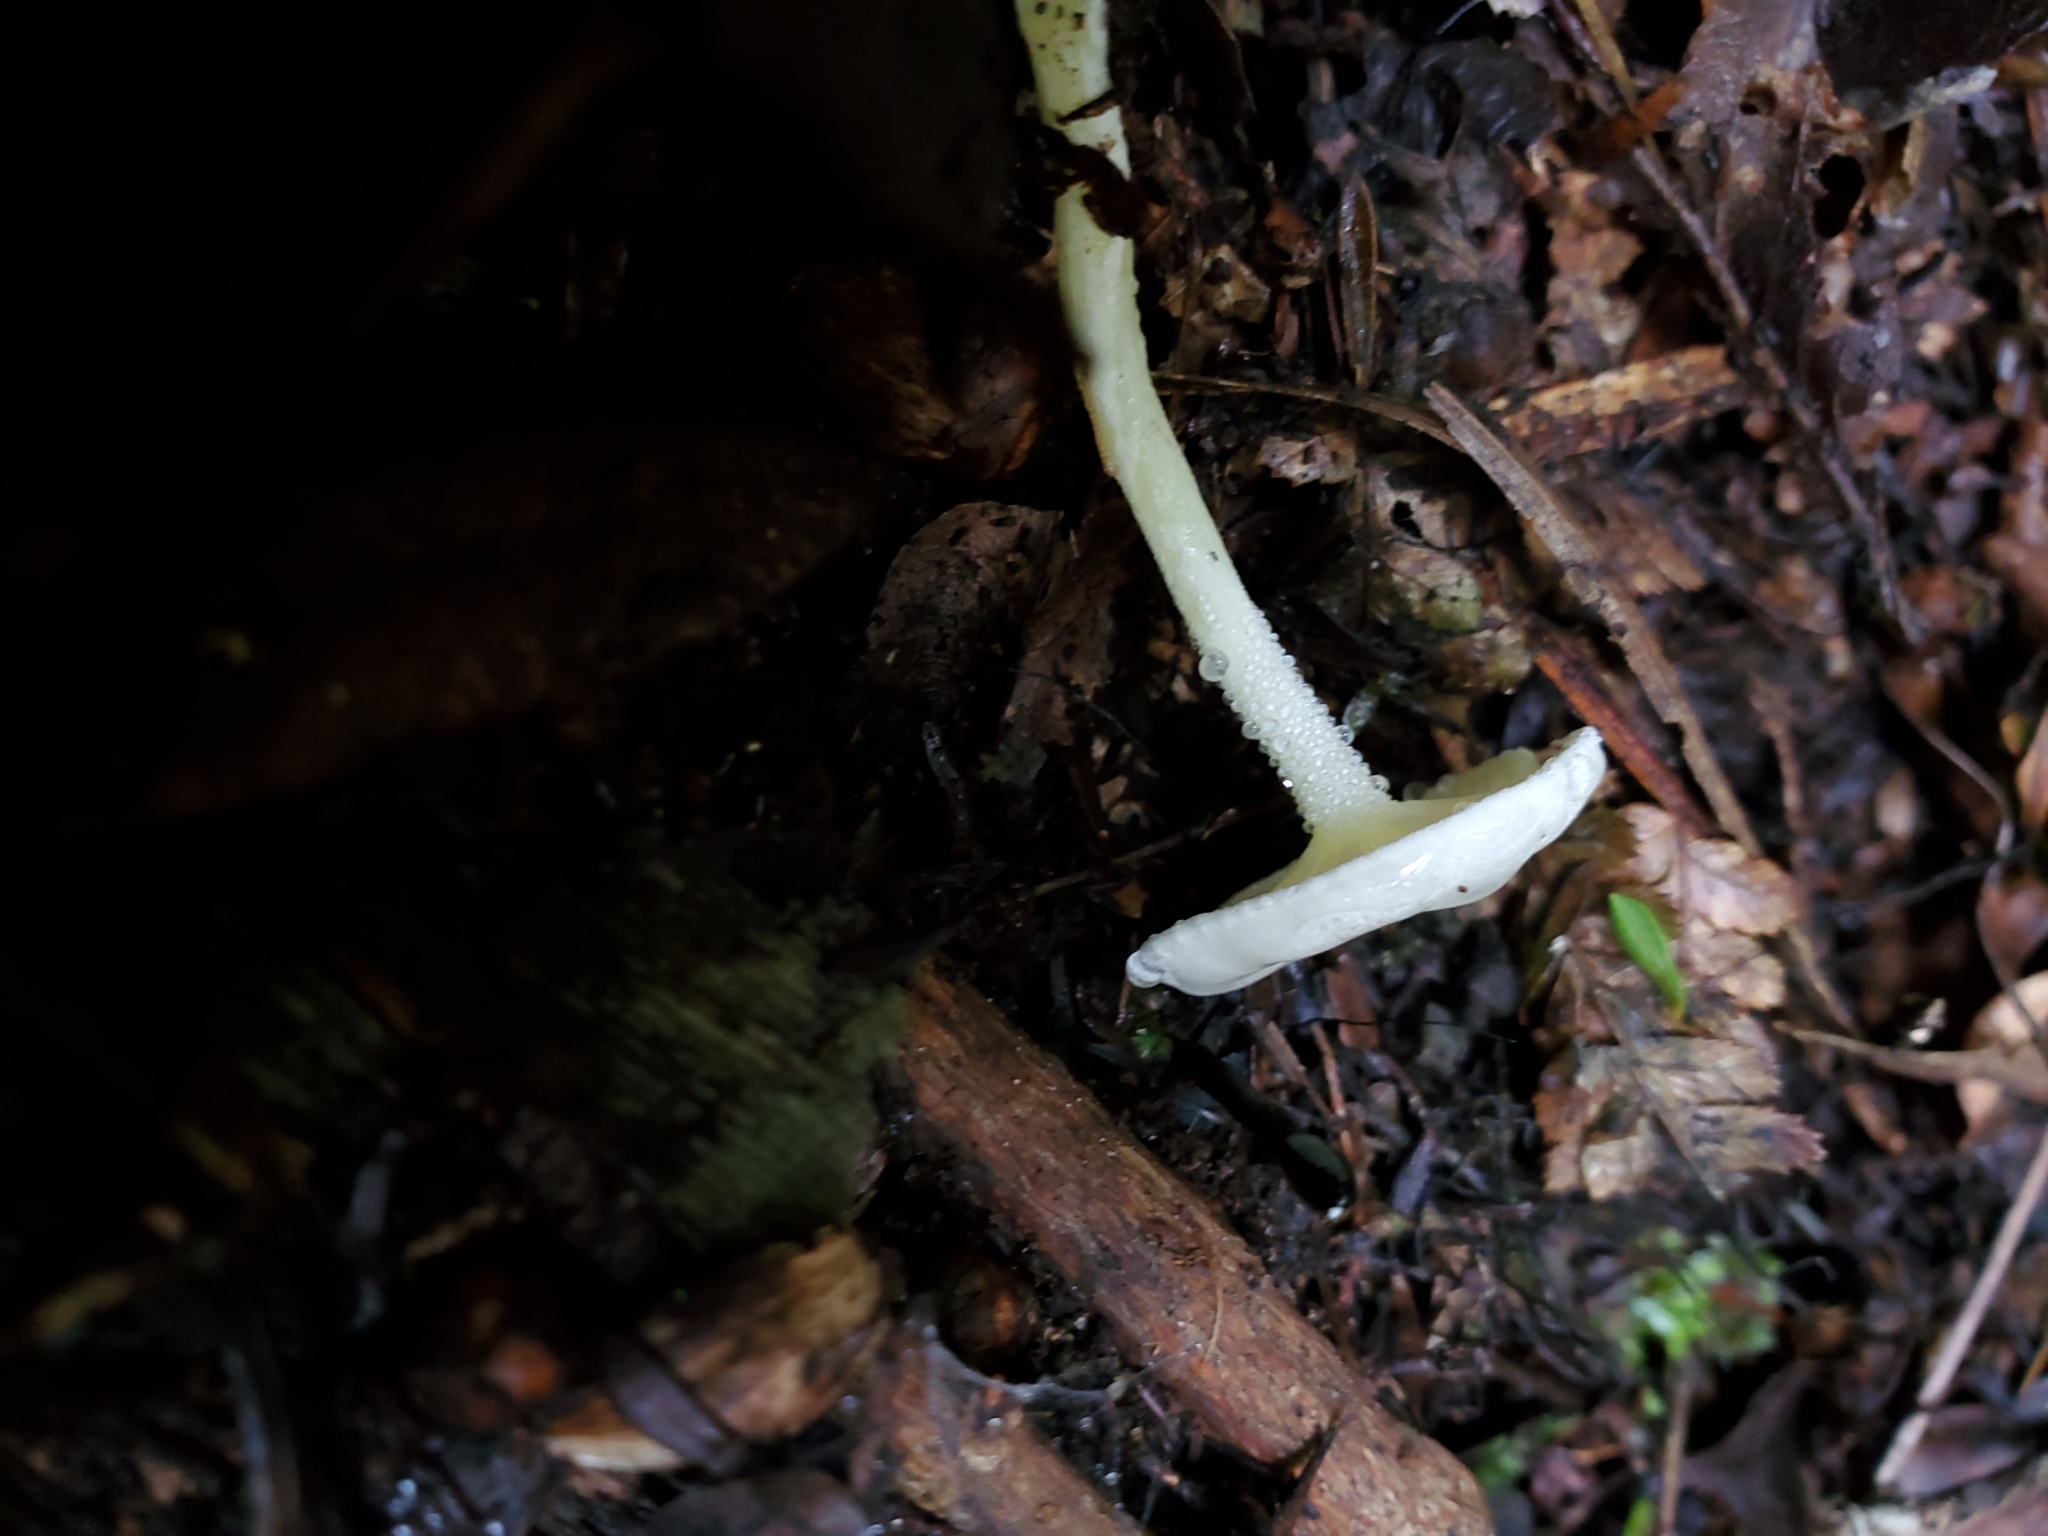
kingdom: Fungi
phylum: Basidiomycota
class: Agaricomycetes
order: Agaricales
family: Hygrophoraceae
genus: Hygrophorus
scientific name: Hygrophorus involutus
